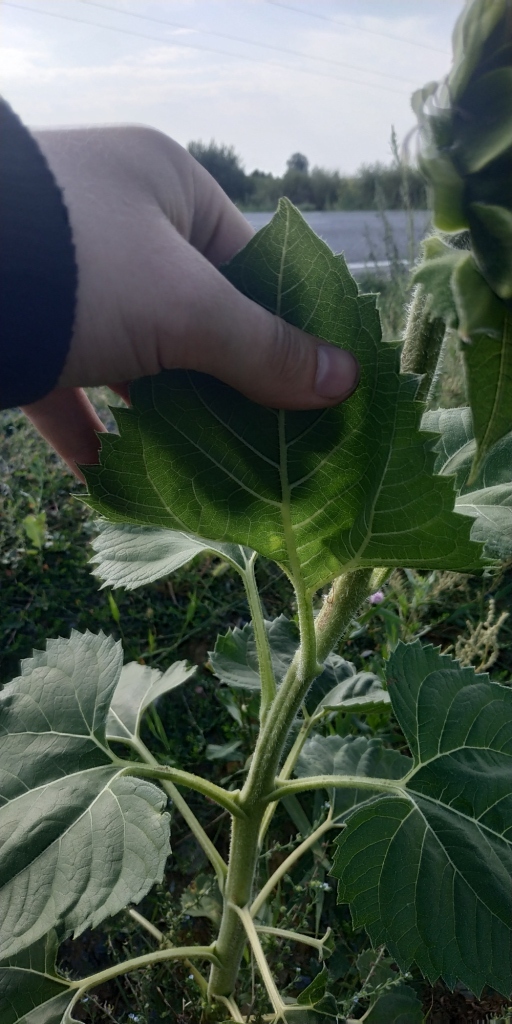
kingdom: Plantae
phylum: Tracheophyta
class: Magnoliopsida
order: Asterales
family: Asteraceae
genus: Helianthus
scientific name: Helianthus annuus
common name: Sunflower
